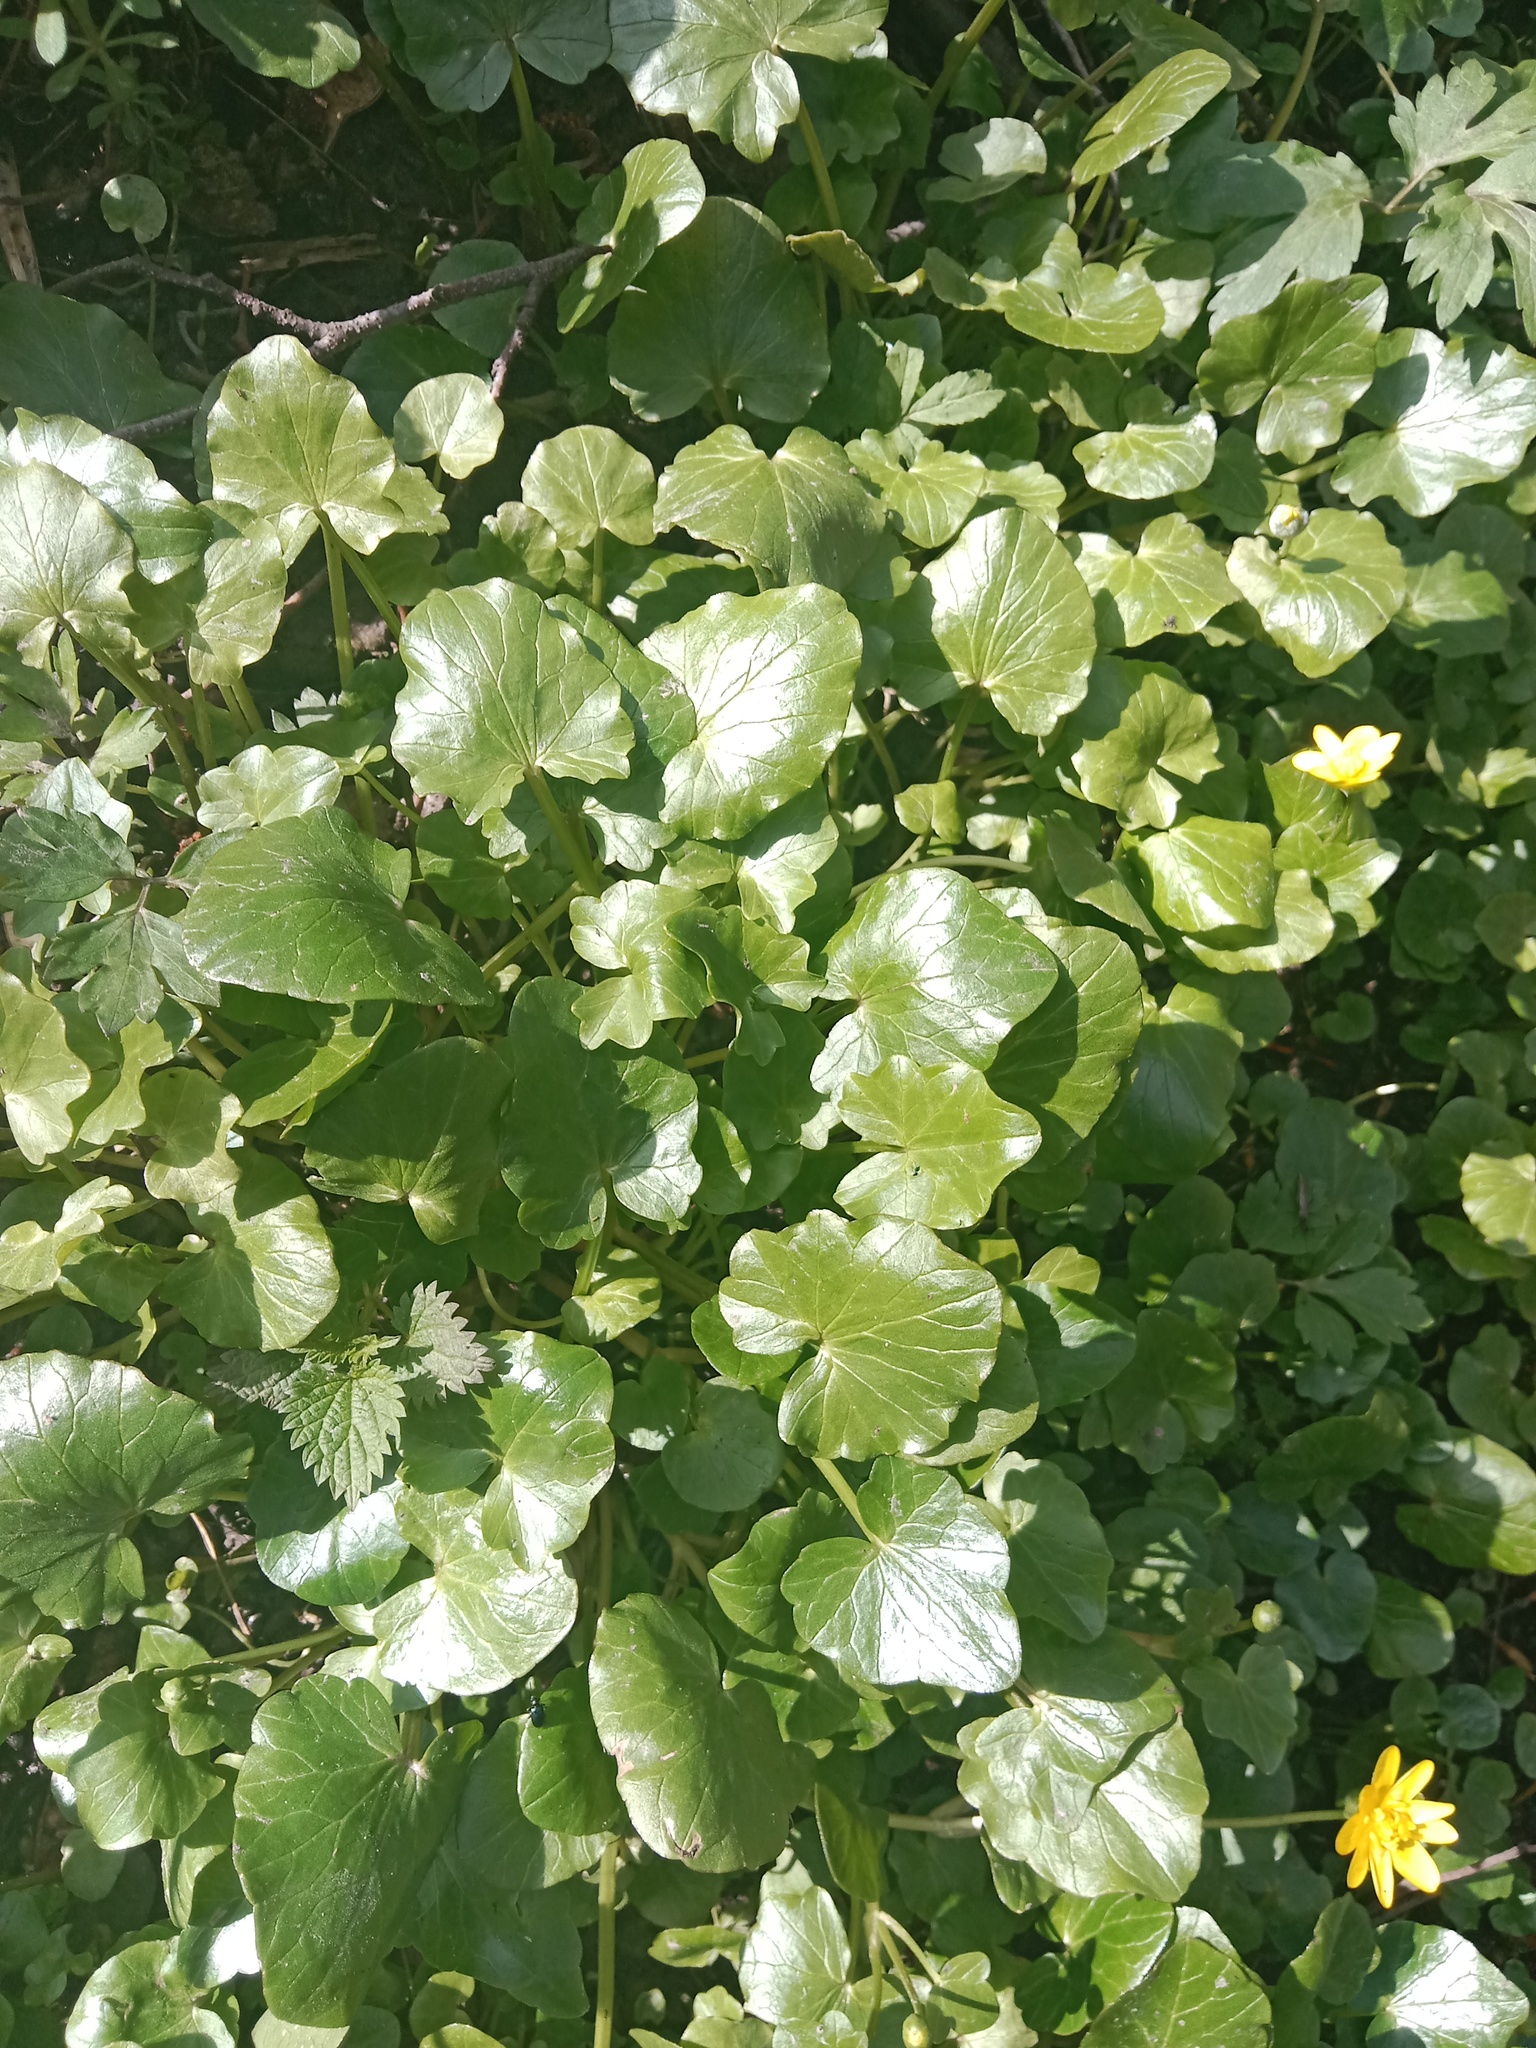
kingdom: Plantae
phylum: Tracheophyta
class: Magnoliopsida
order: Ranunculales
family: Ranunculaceae
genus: Ficaria
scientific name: Ficaria verna
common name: Lesser celandine
